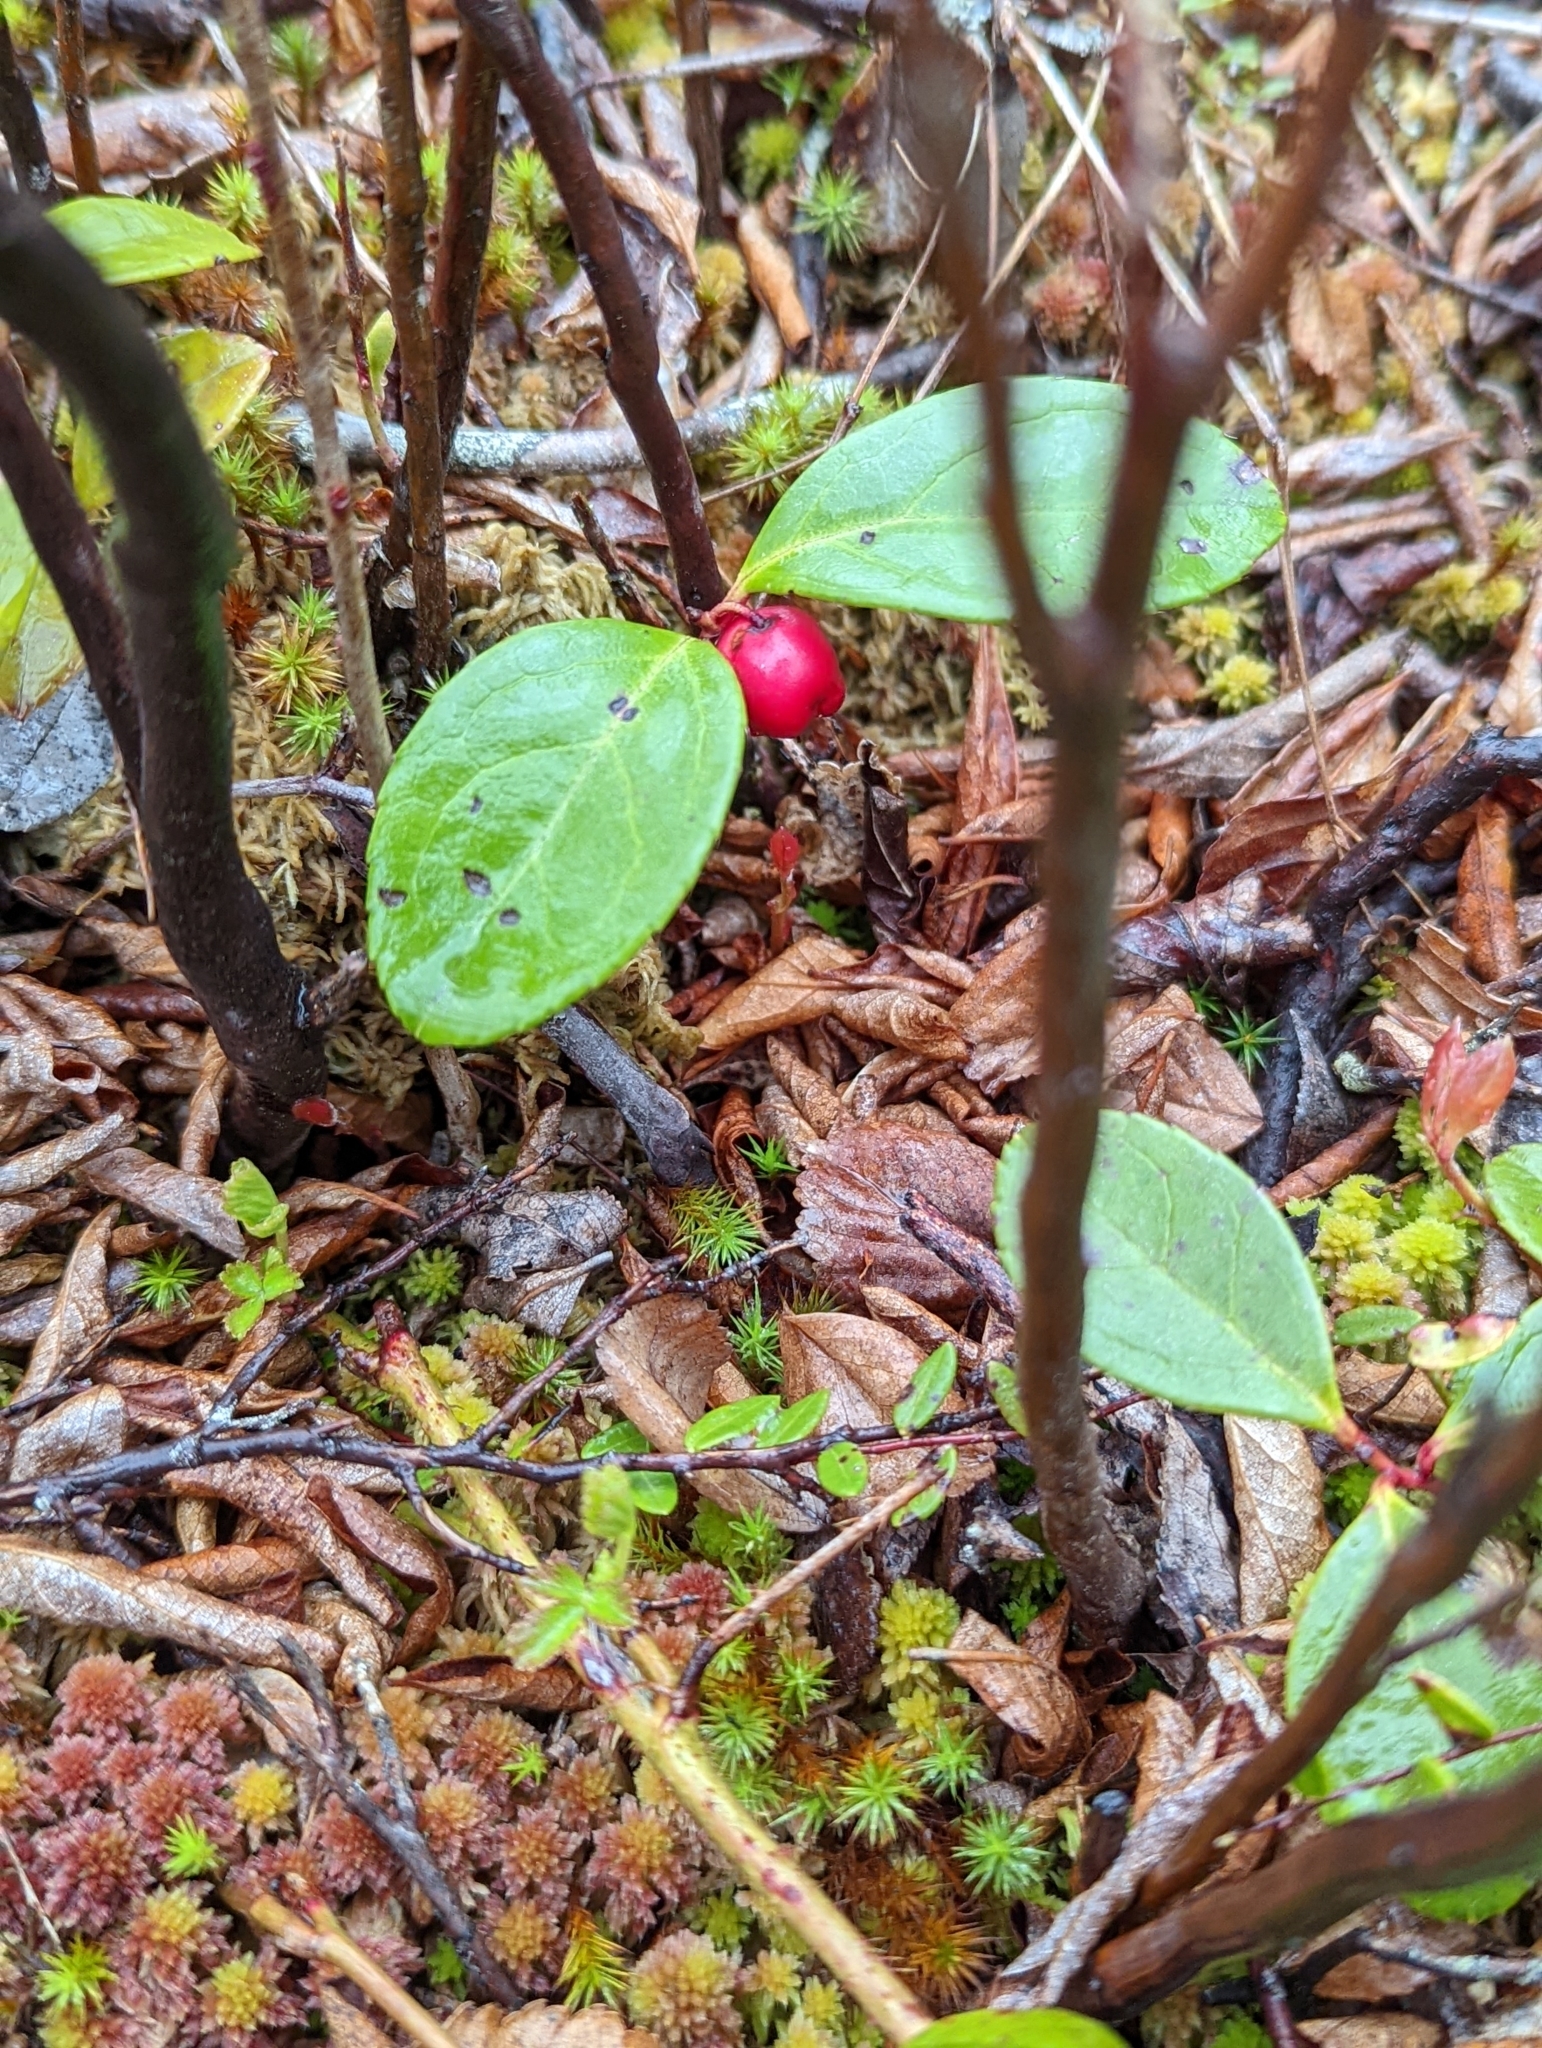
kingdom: Plantae
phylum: Tracheophyta
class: Magnoliopsida
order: Ericales
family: Ericaceae
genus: Gaultheria
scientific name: Gaultheria procumbens
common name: Checkerberry
